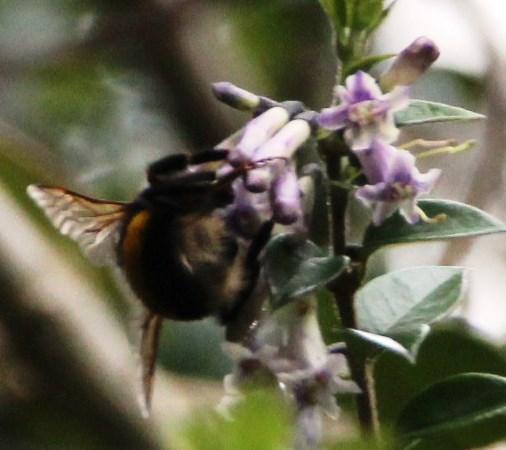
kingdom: Animalia
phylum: Arthropoda
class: Insecta
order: Hymenoptera
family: Apidae
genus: Bombus
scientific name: Bombus terrestris
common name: Buff-tailed bumblebee
